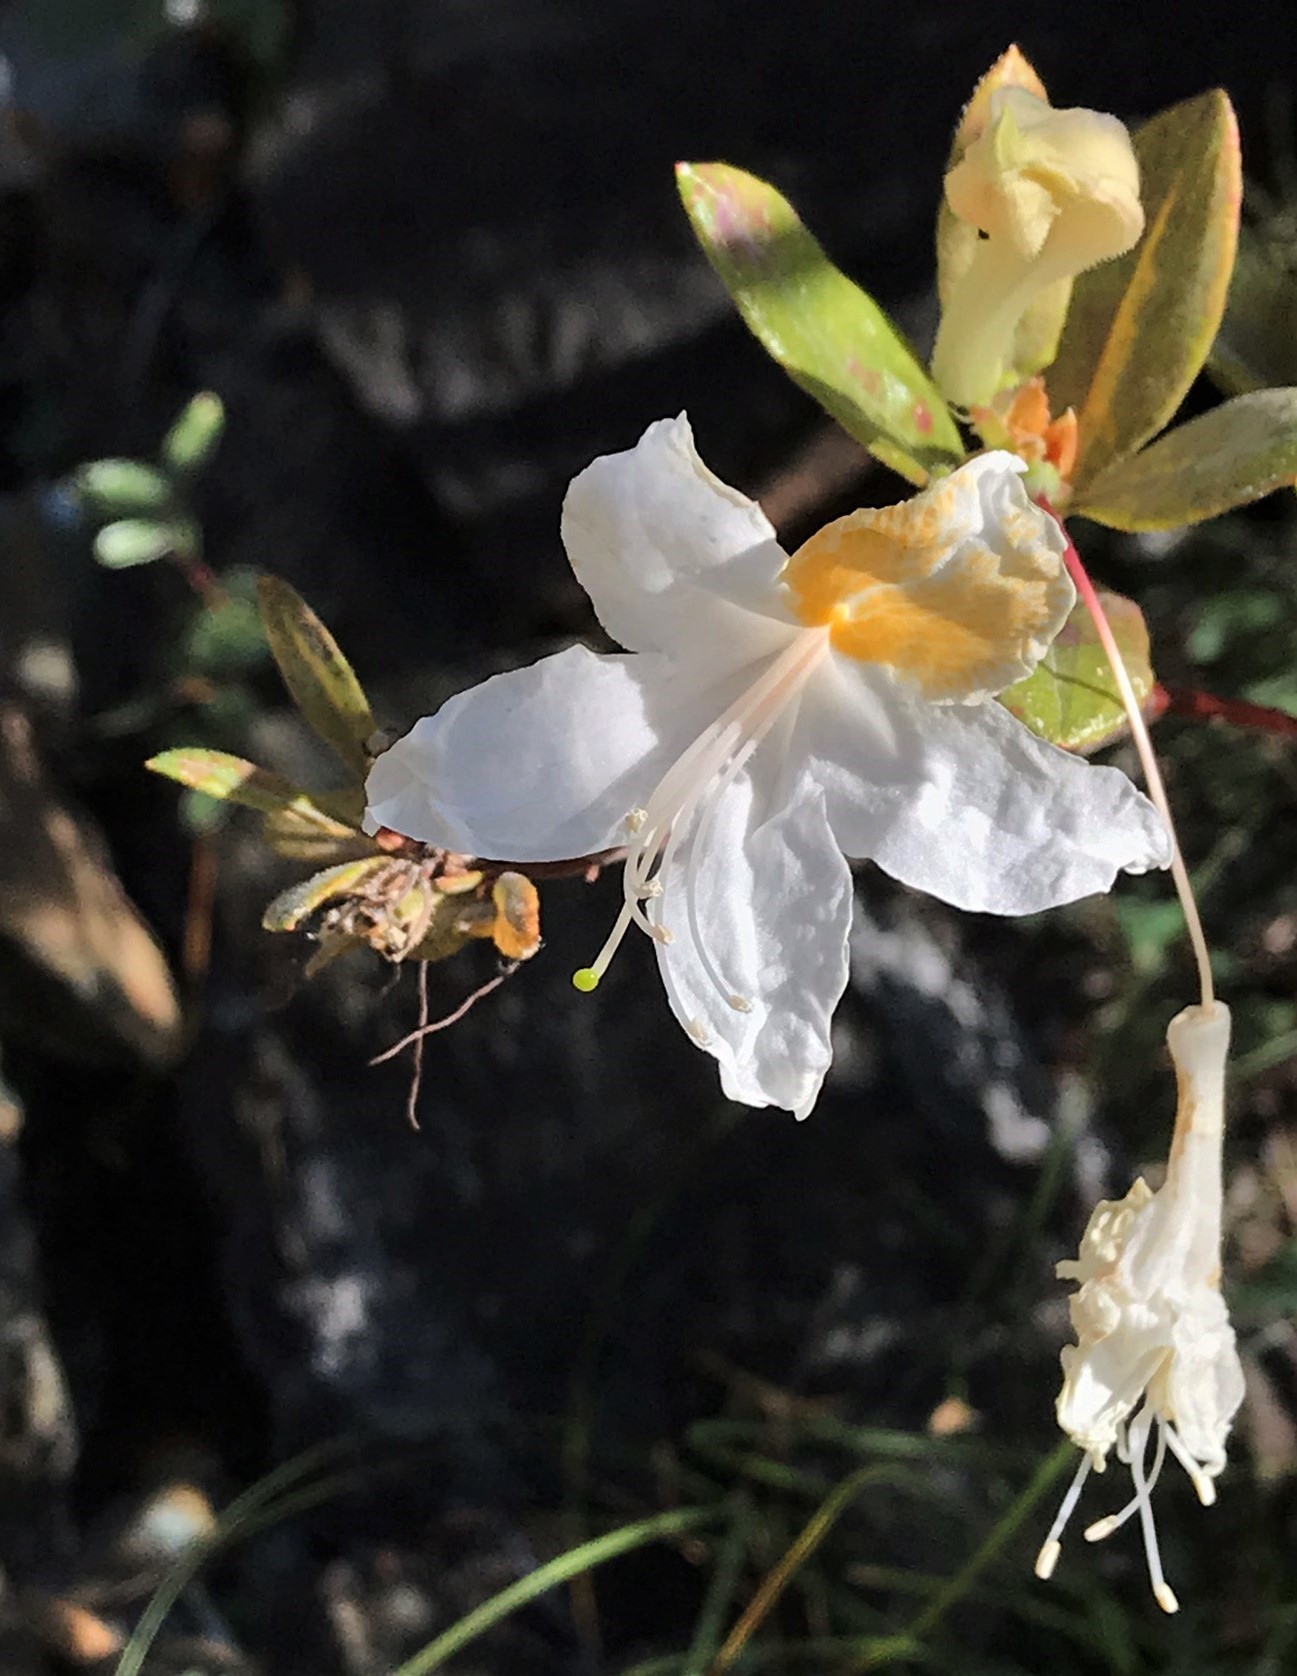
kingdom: Plantae
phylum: Tracheophyta
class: Magnoliopsida
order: Ericales
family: Ericaceae
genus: Rhododendron
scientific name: Rhododendron occidentale
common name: Western azalea
